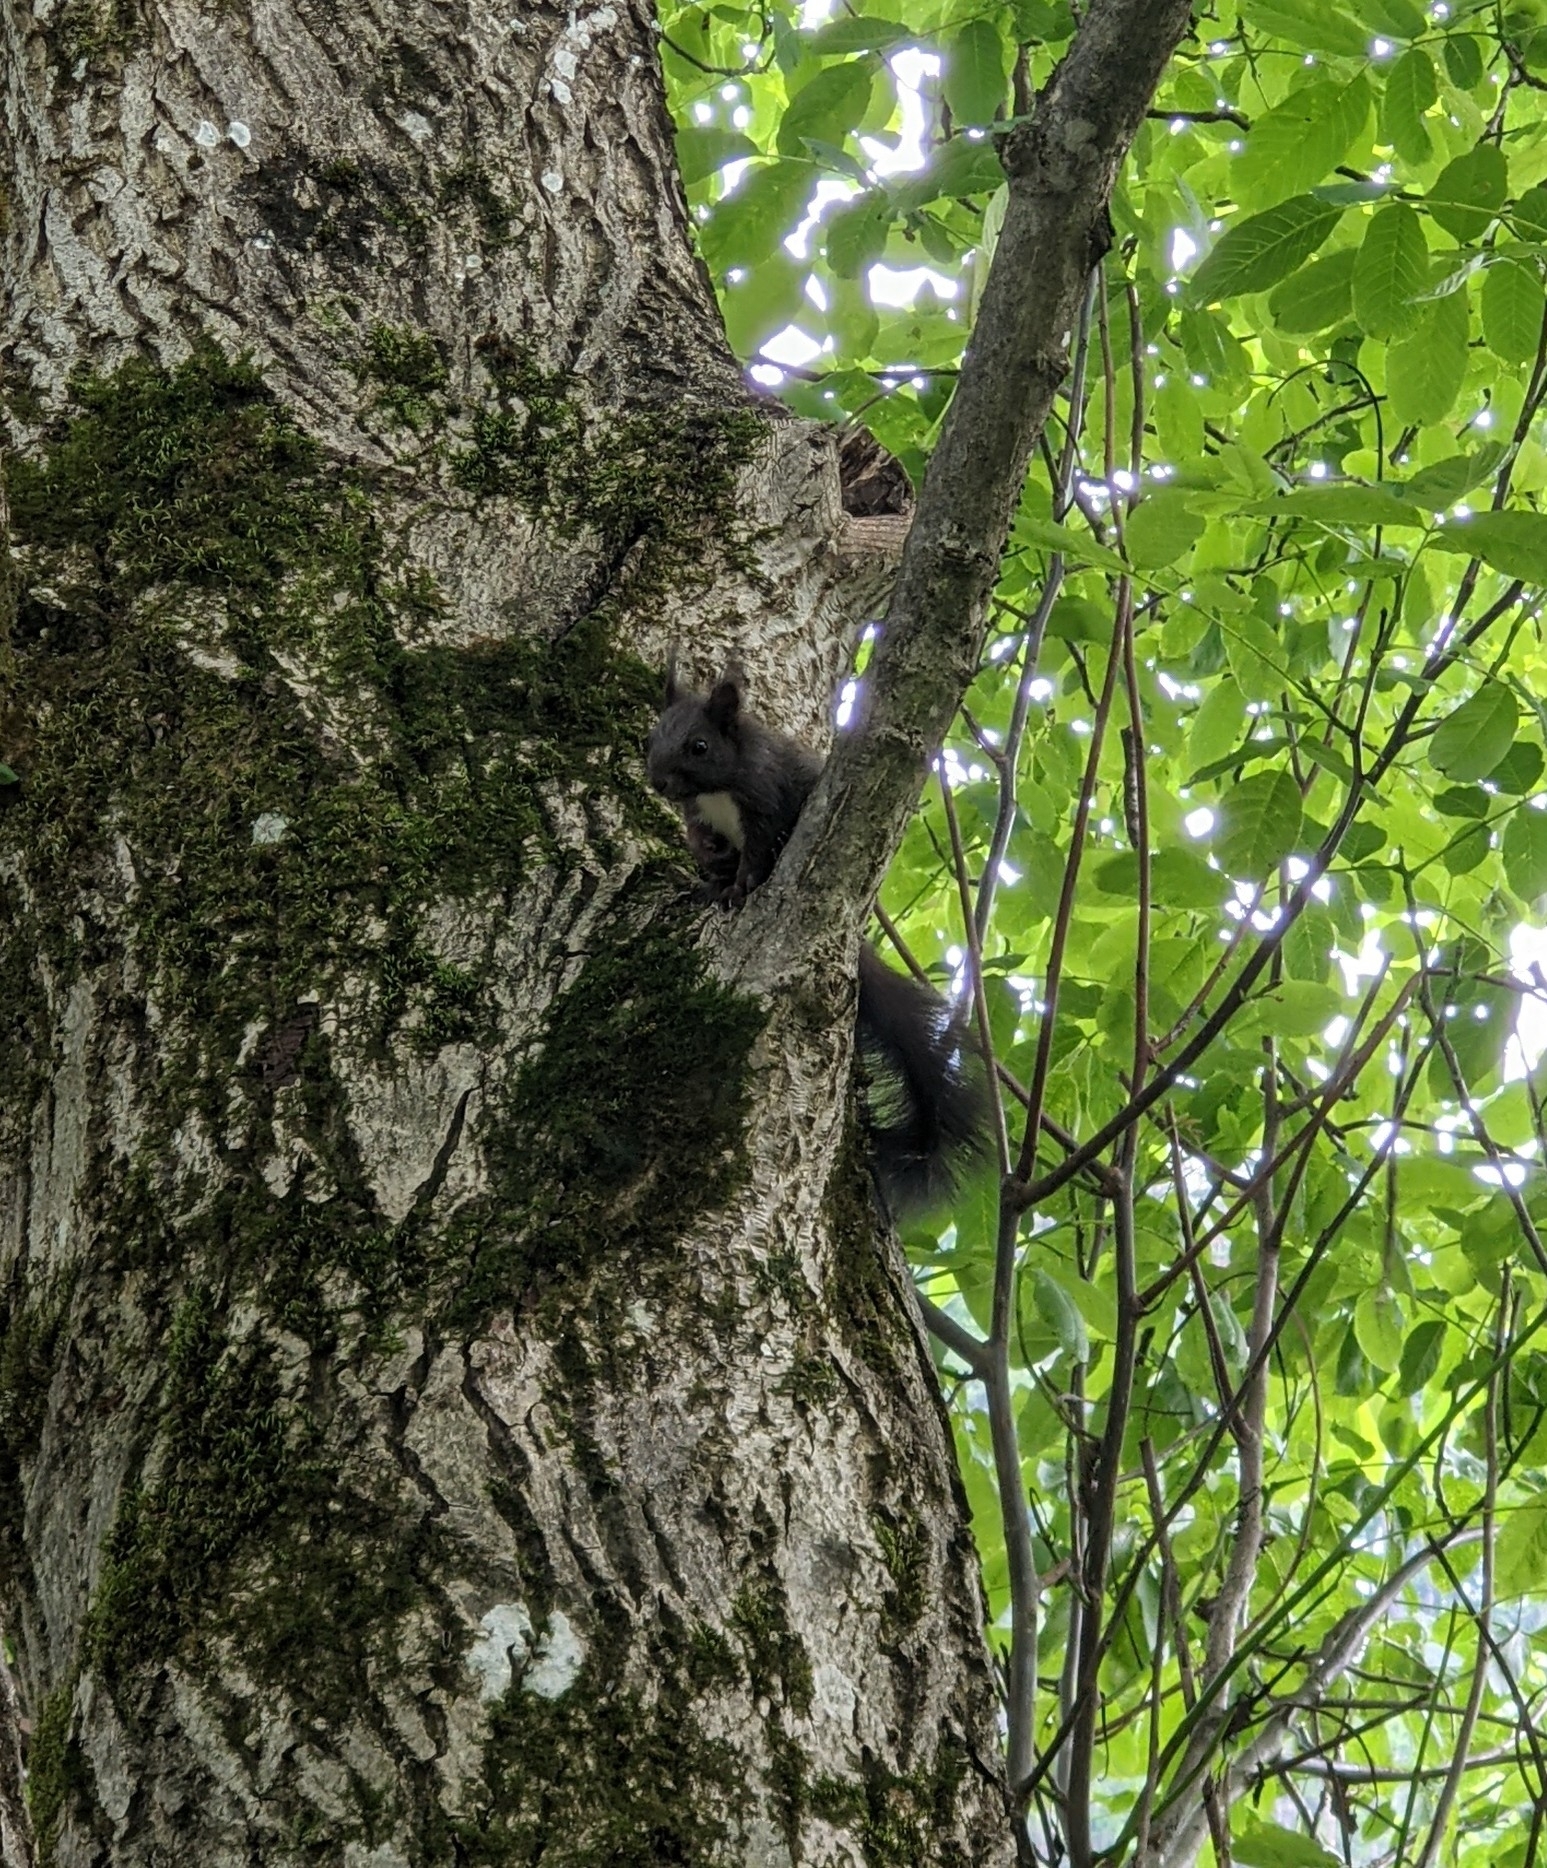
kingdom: Animalia
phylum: Chordata
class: Mammalia
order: Rodentia
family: Sciuridae
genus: Sciurus
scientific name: Sciurus vulgaris
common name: Eurasian red squirrel
